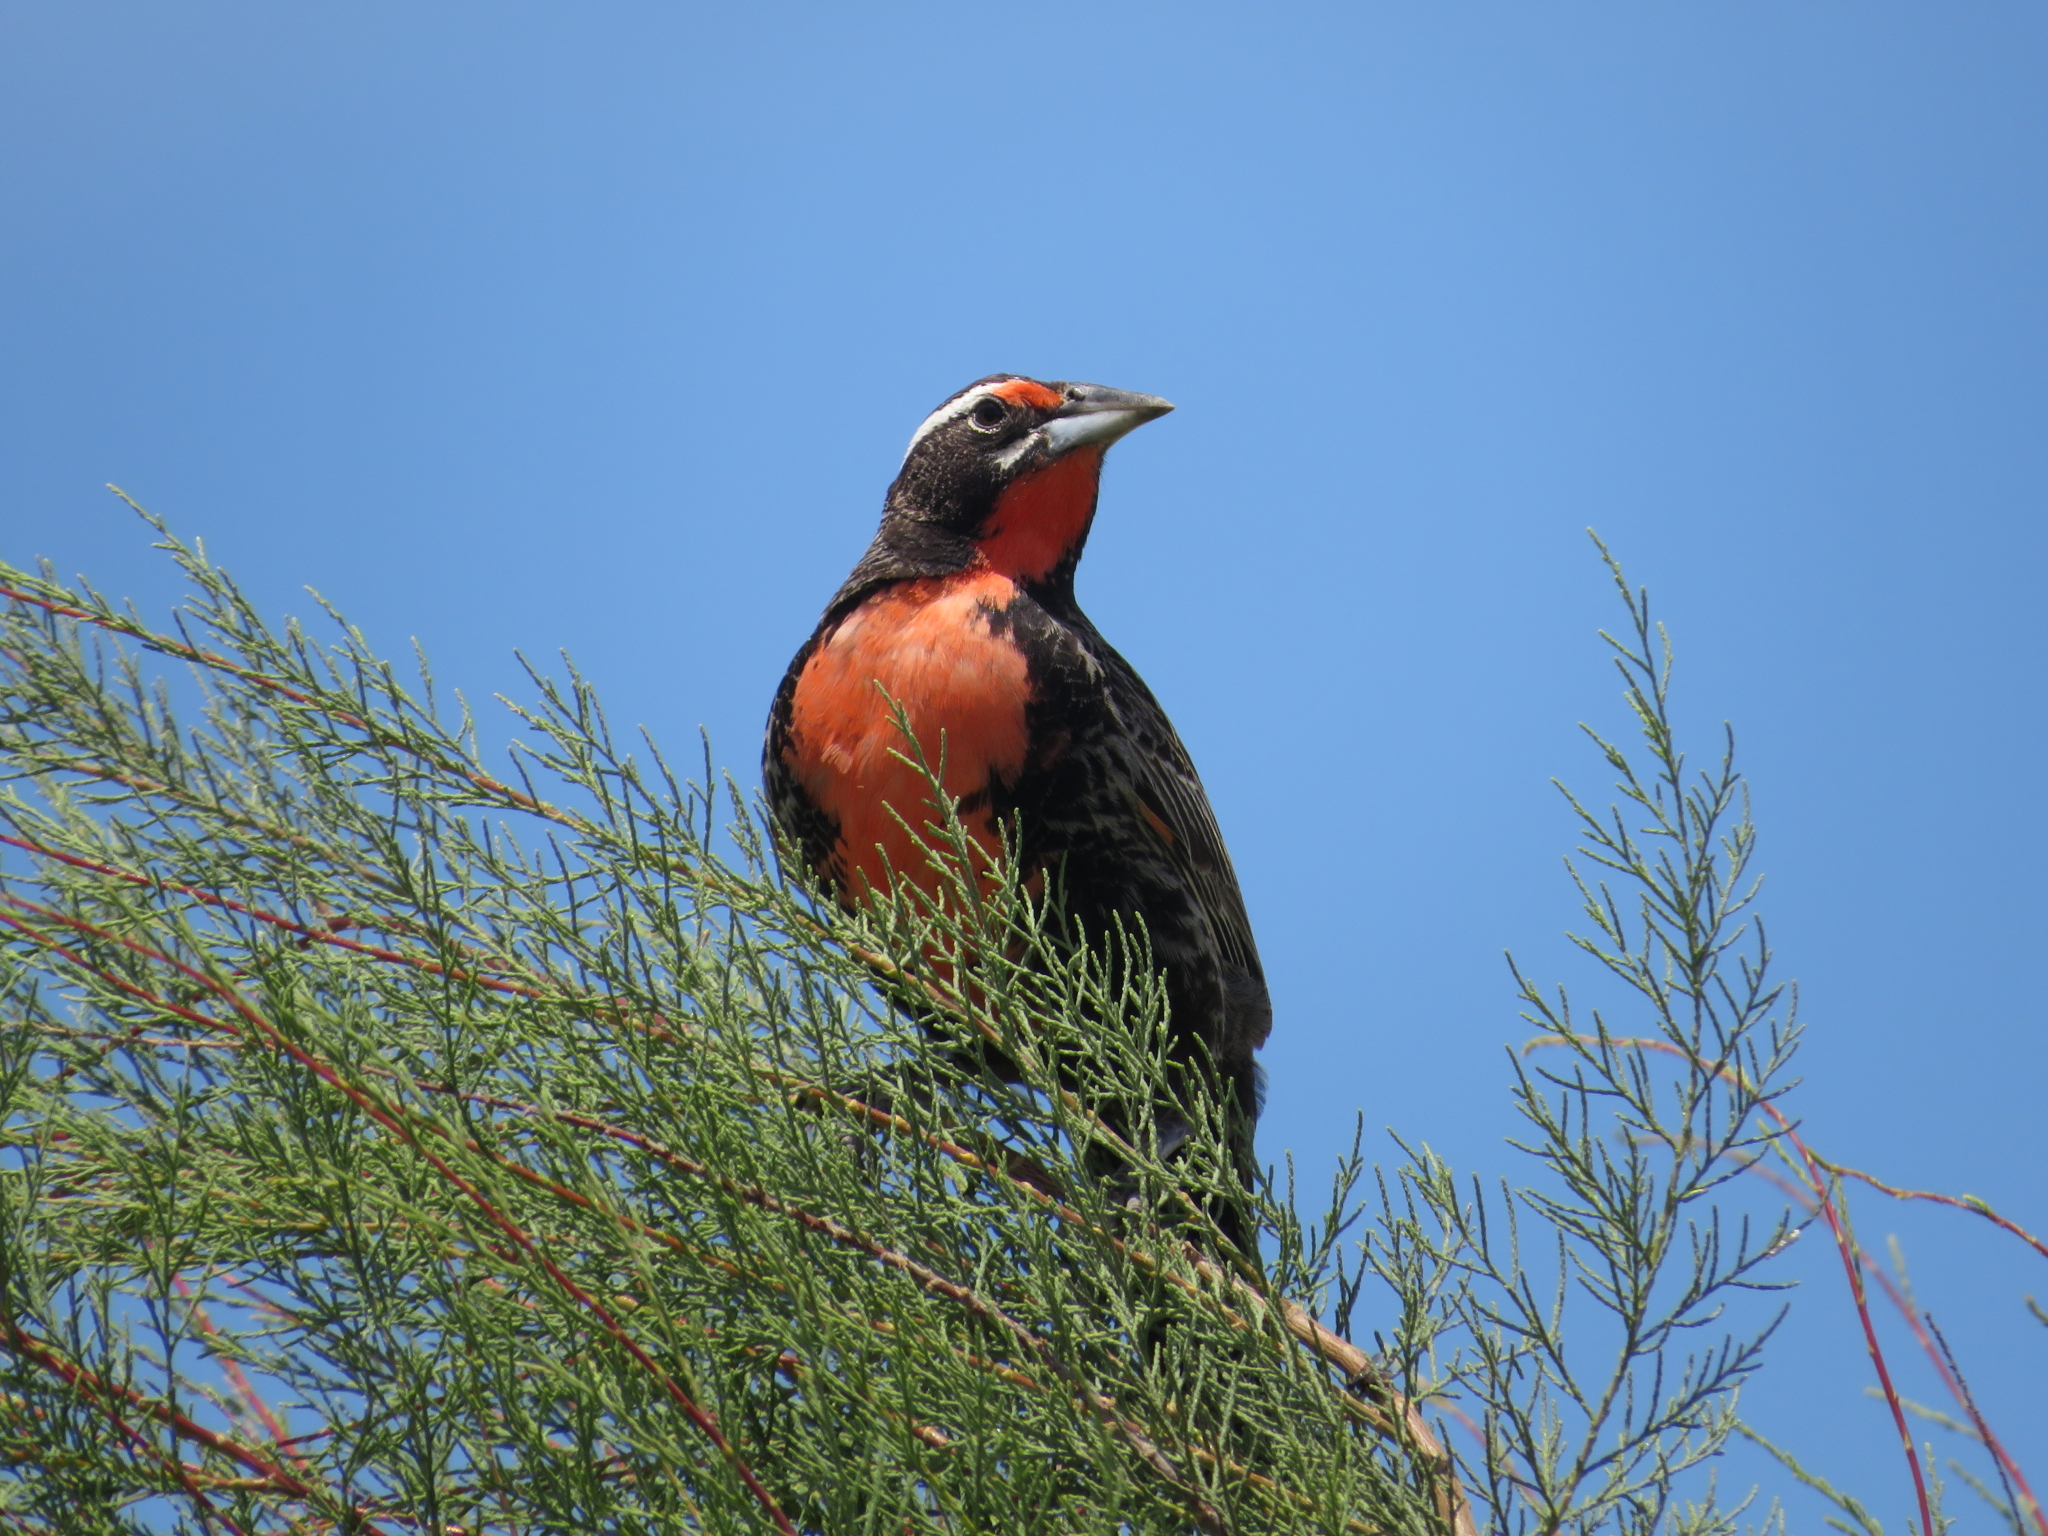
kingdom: Animalia
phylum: Chordata
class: Aves
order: Passeriformes
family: Icteridae
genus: Sturnella
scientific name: Sturnella loyca
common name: Long-tailed meadowlark
